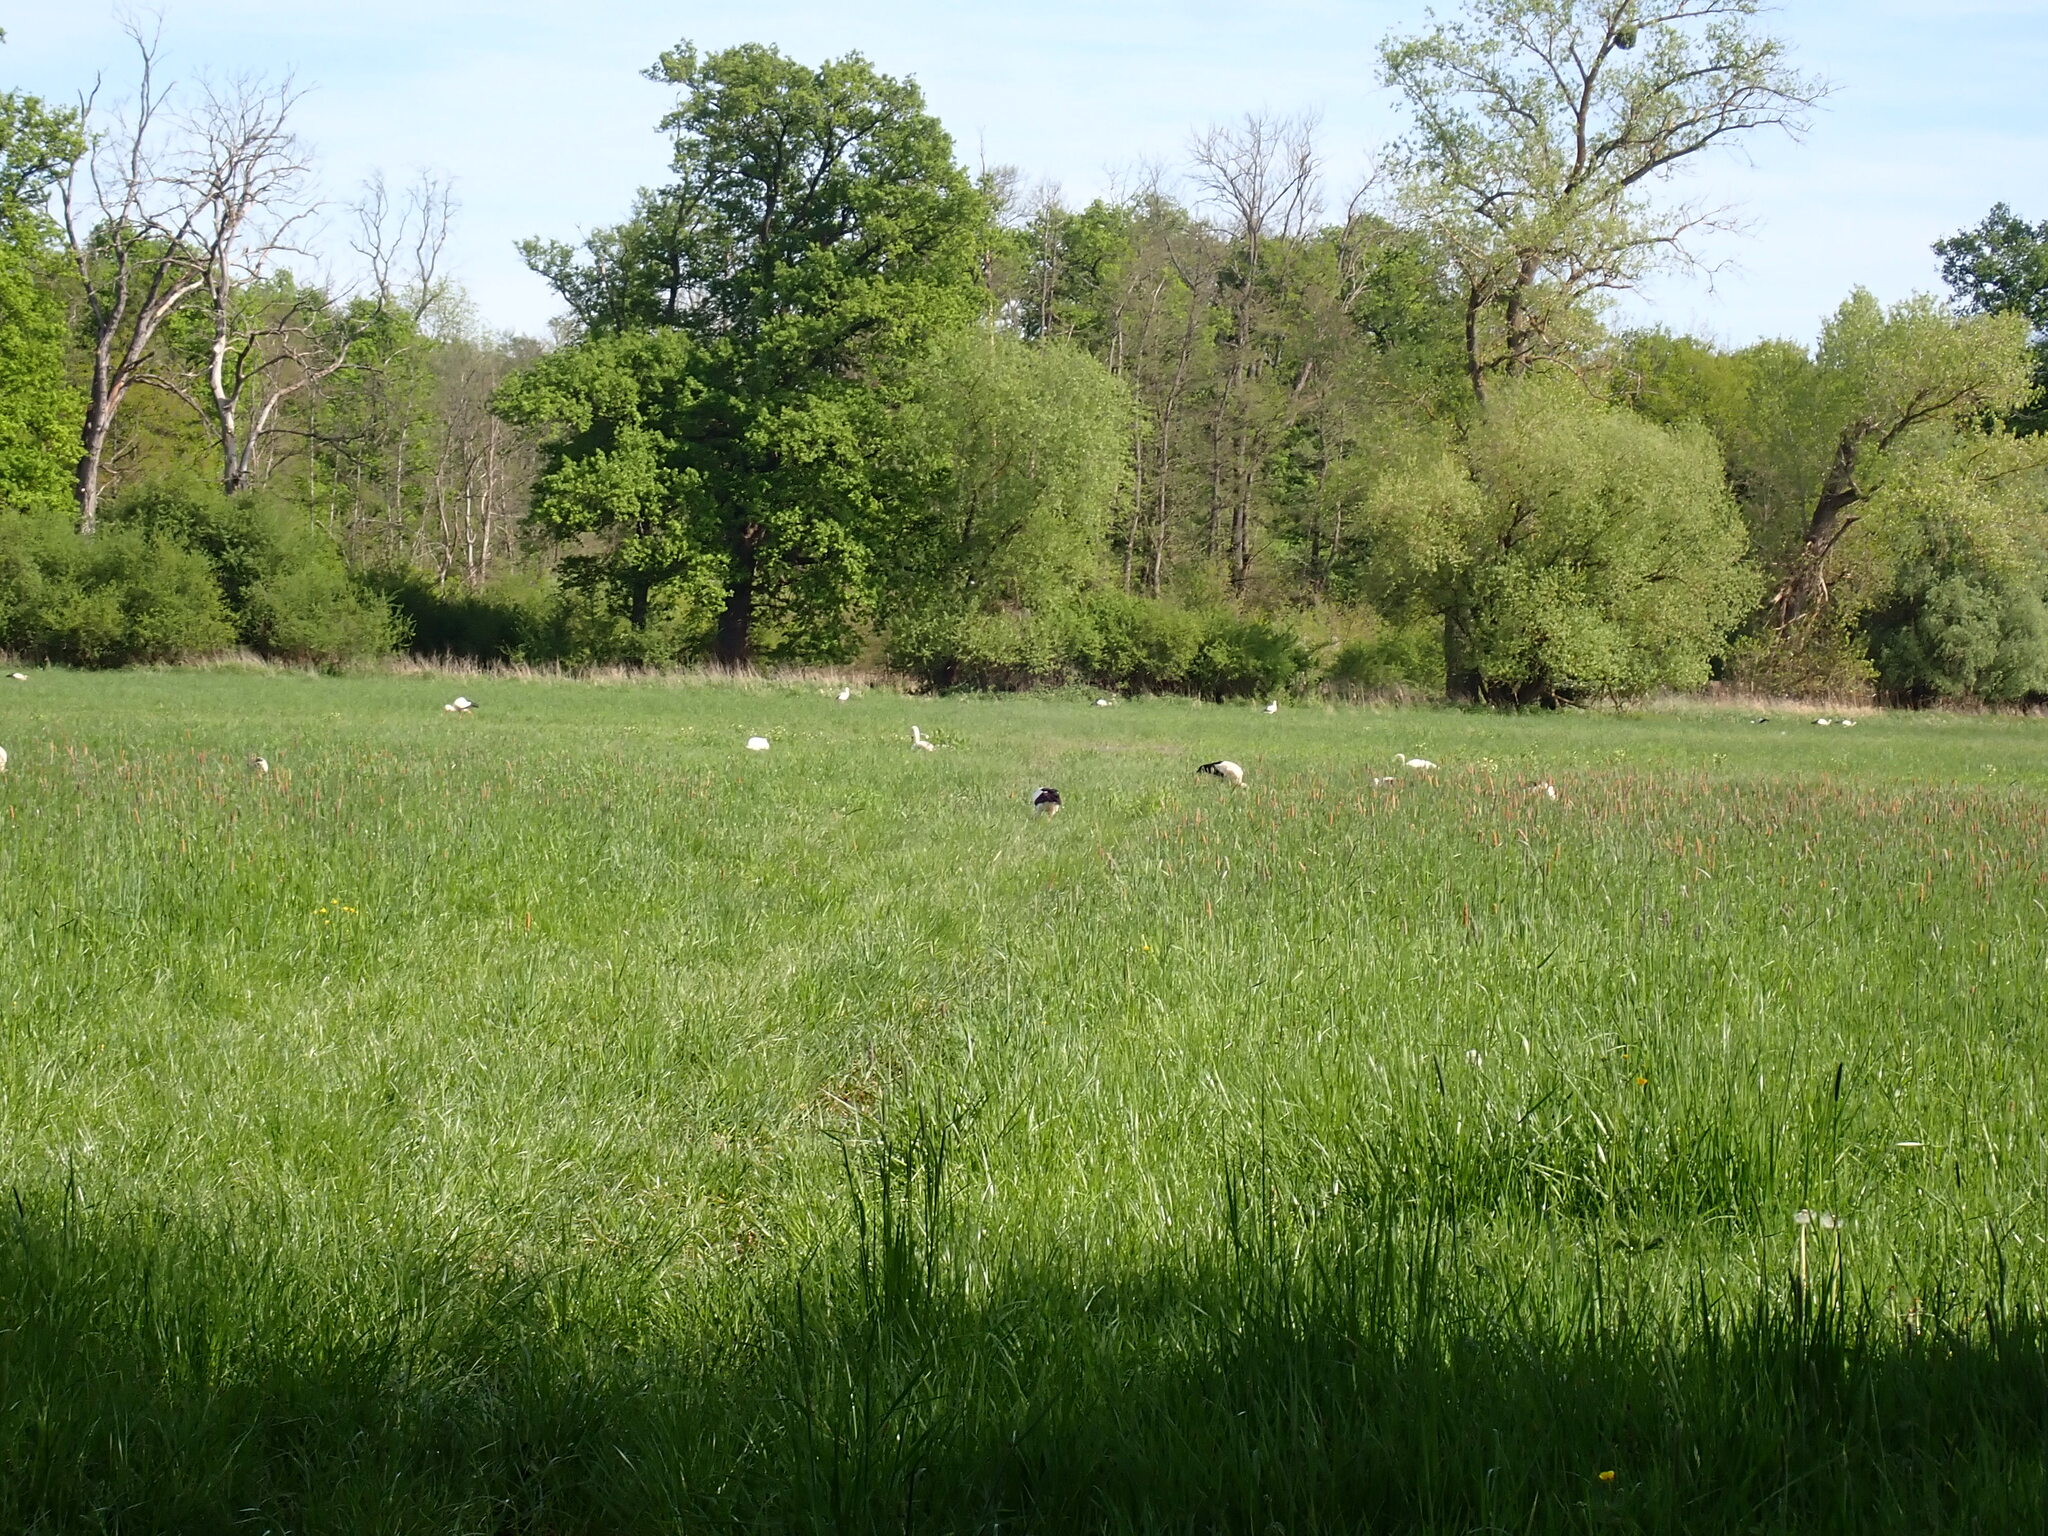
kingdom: Animalia
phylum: Chordata
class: Aves
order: Ciconiiformes
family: Ciconiidae
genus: Ciconia
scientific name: Ciconia ciconia
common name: White stork
